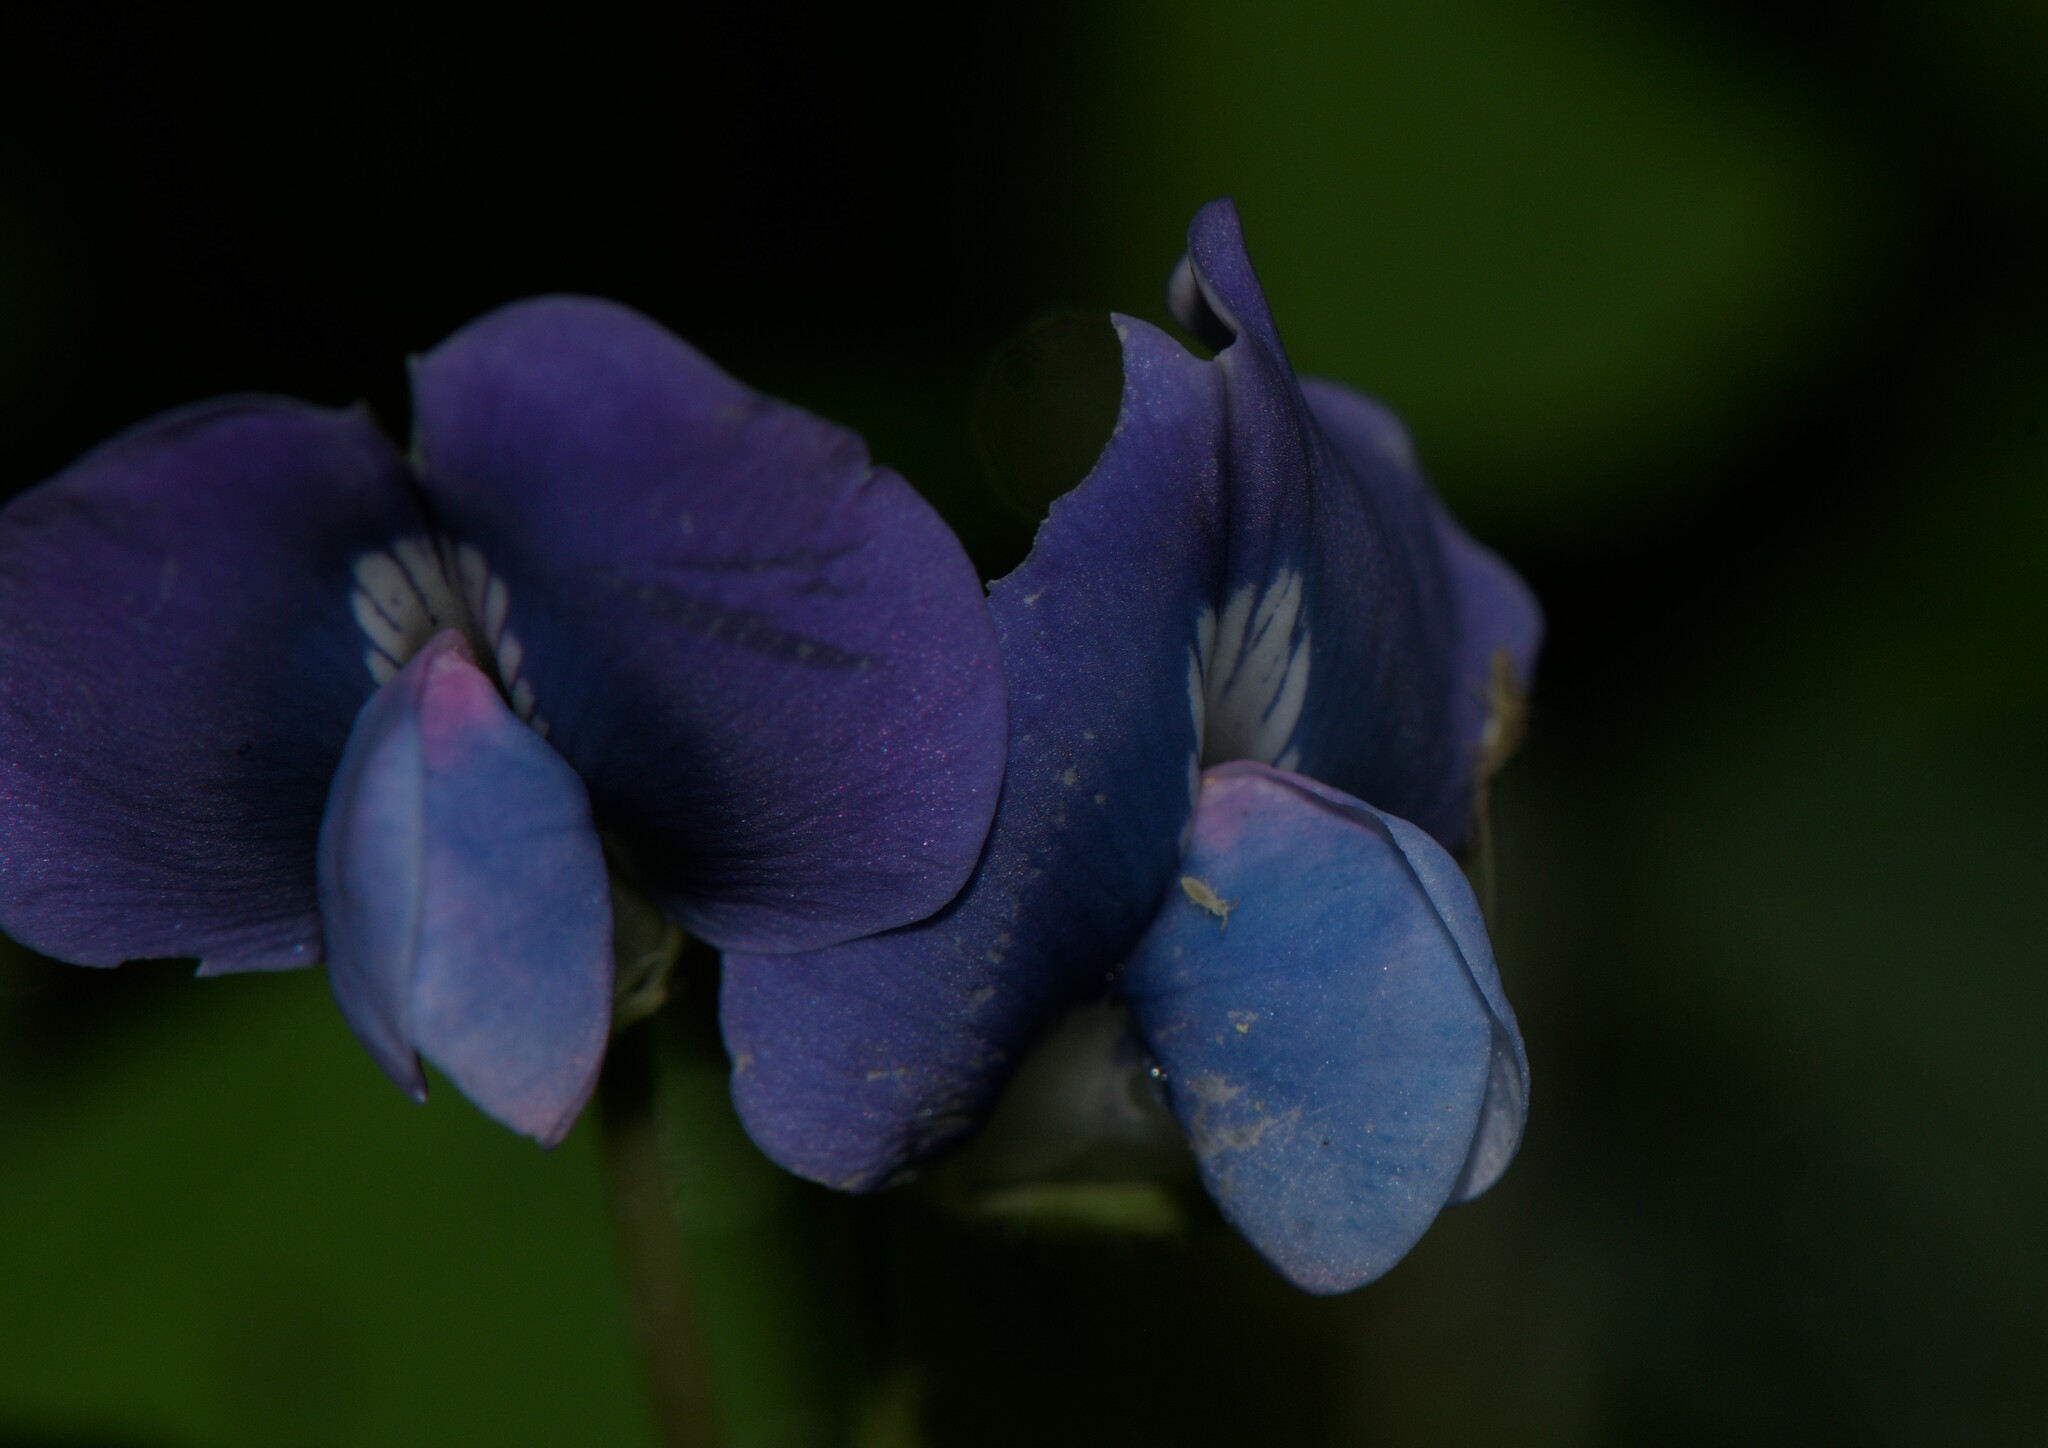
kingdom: Plantae
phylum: Tracheophyta
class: Magnoliopsida
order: Fabales
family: Fabaceae
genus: Parochetus
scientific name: Parochetus communis
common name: Blue oxalis
